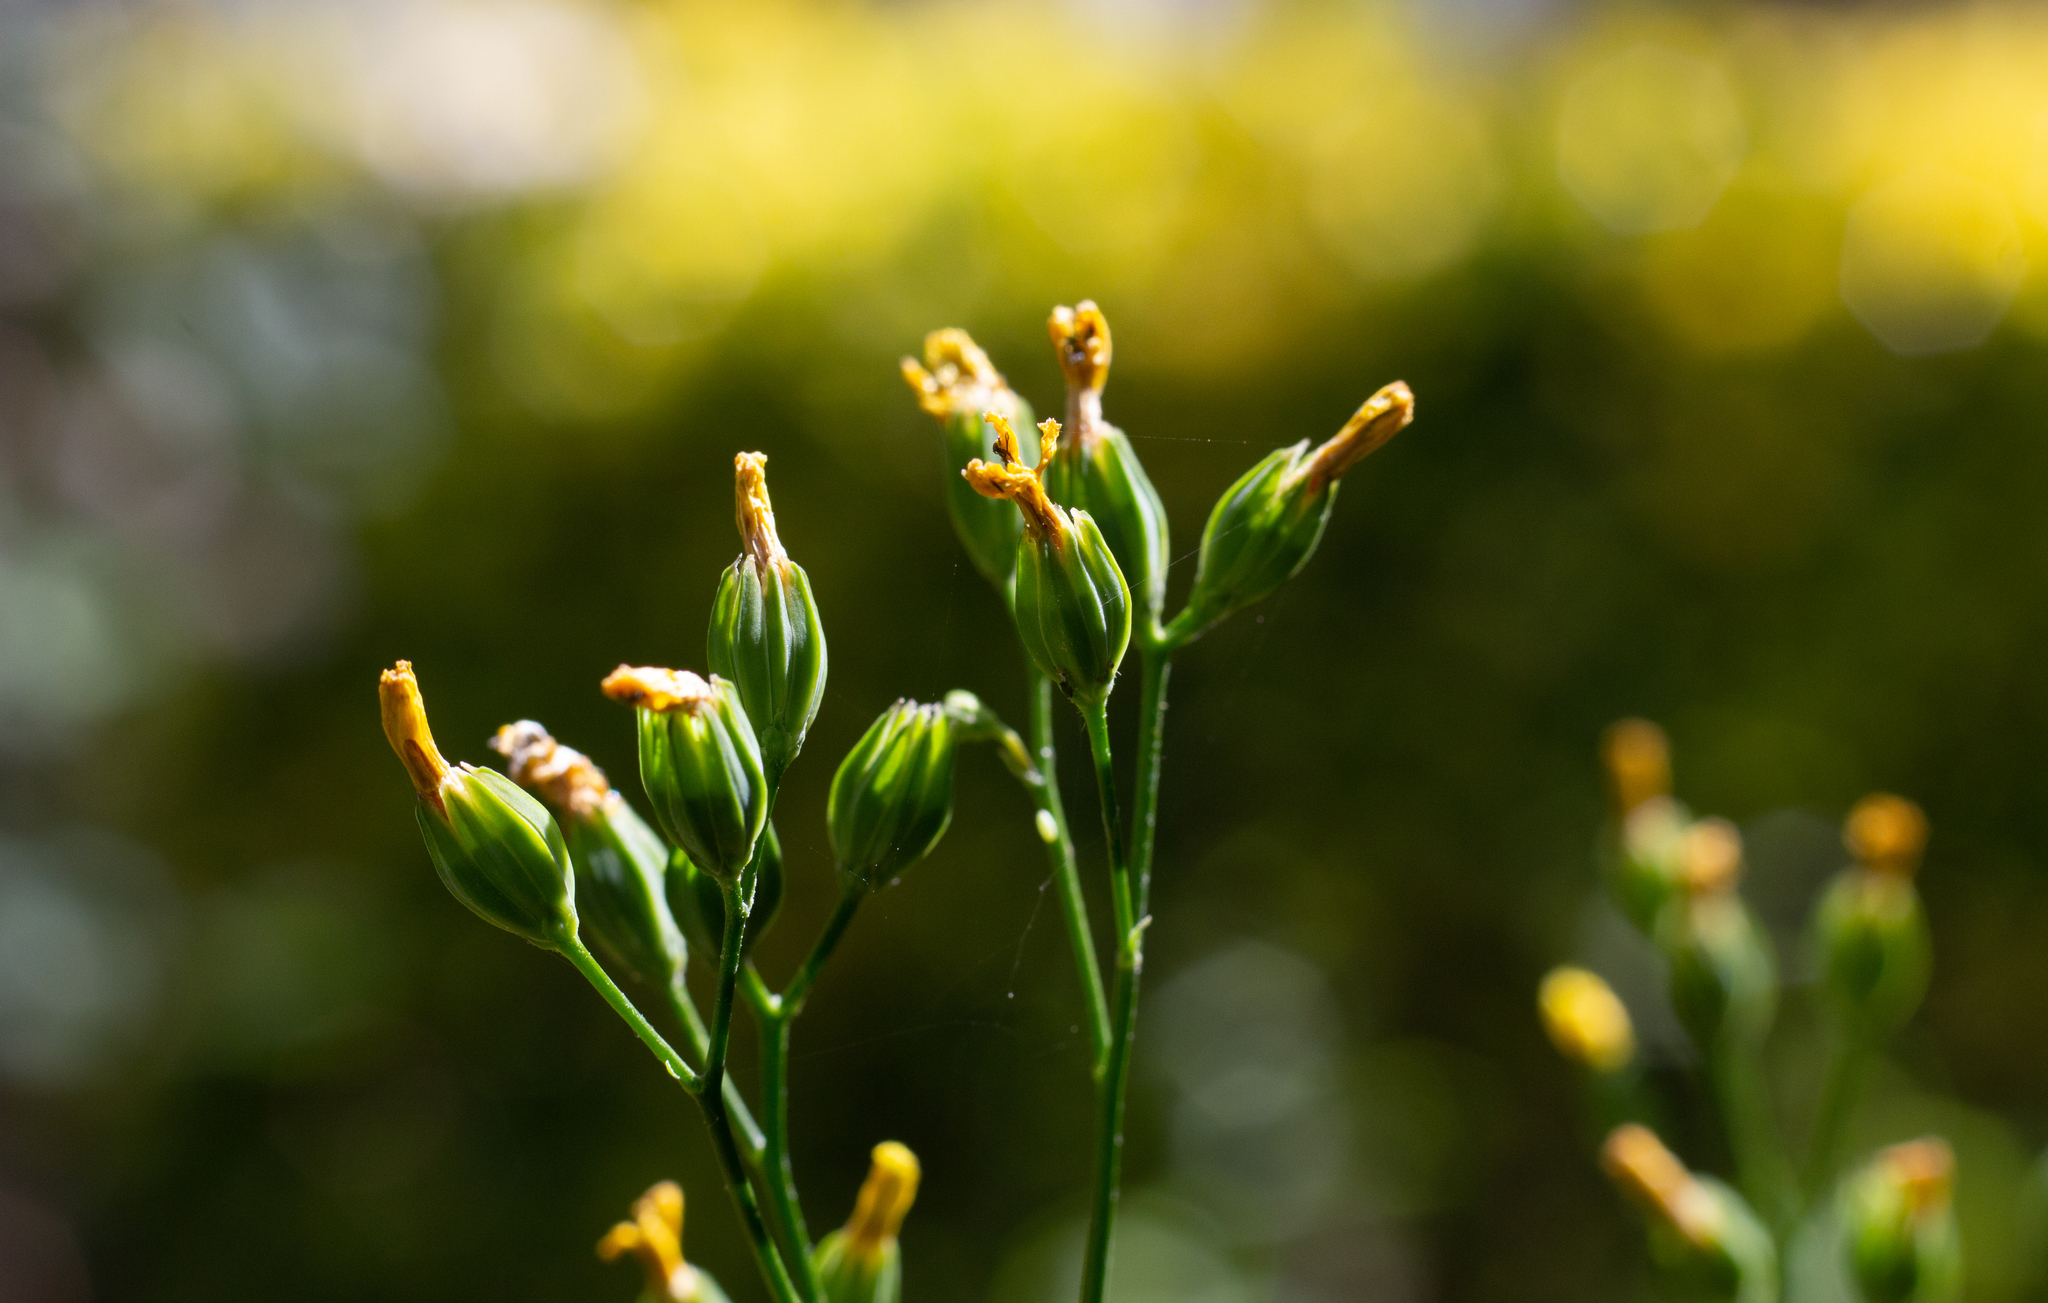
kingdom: Plantae
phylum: Tracheophyta
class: Magnoliopsida
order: Asterales
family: Asteraceae
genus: Lapsana
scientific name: Lapsana communis
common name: Nipplewort
